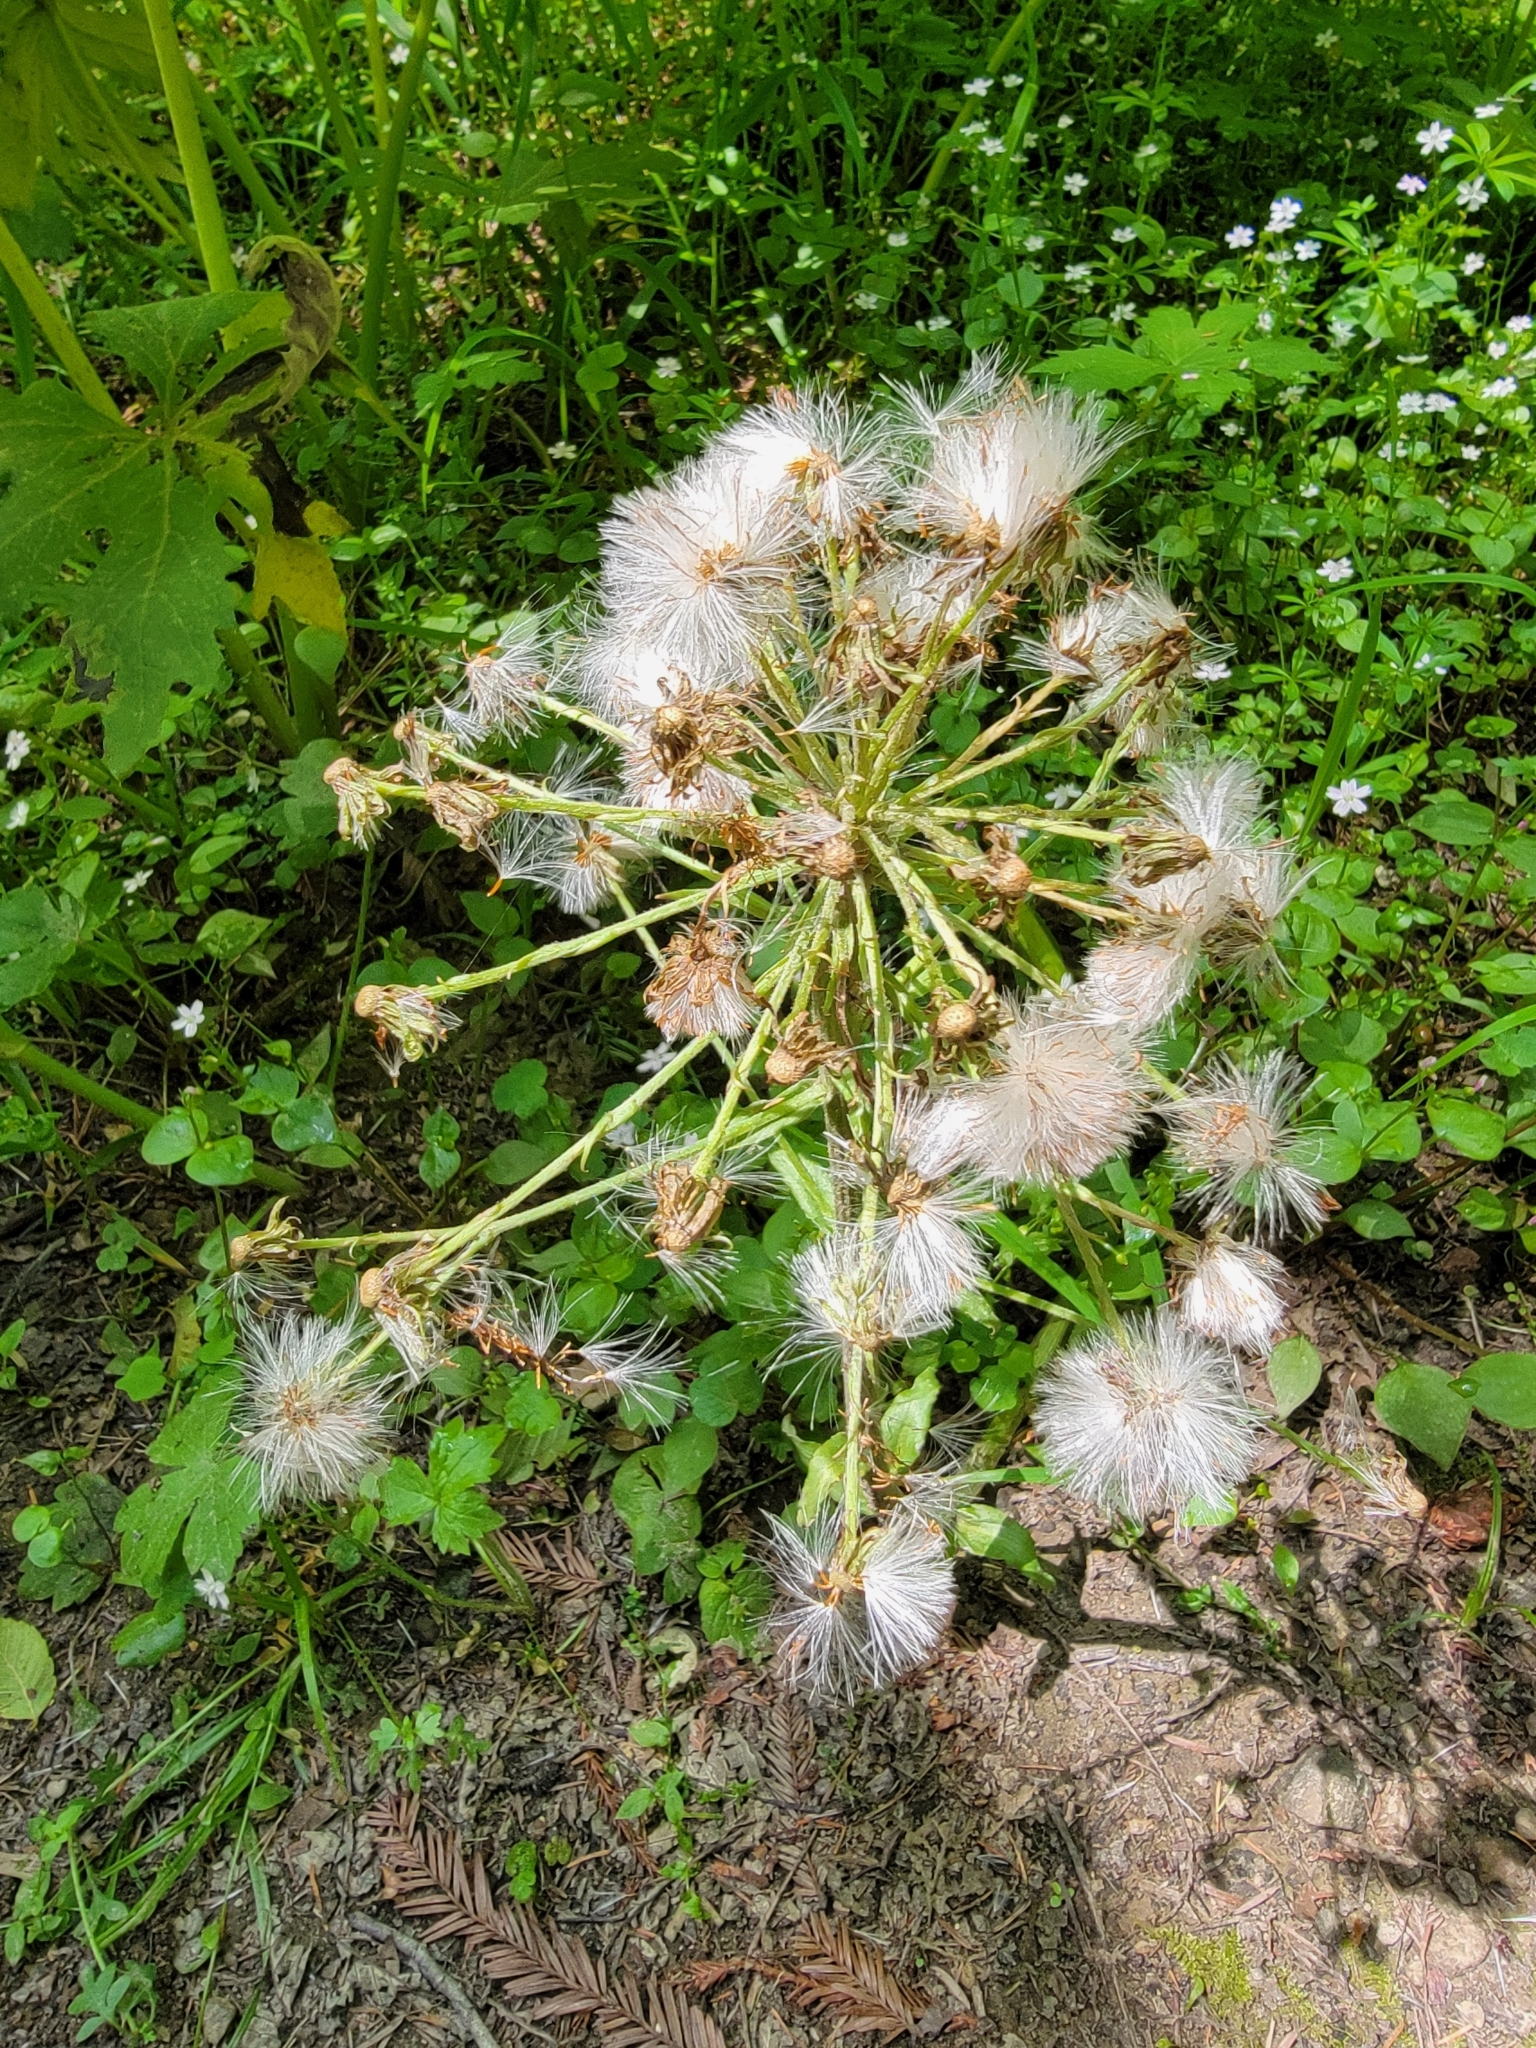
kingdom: Plantae
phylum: Tracheophyta
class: Magnoliopsida
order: Asterales
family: Asteraceae
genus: Petasites
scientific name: Petasites frigidus
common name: Arctic butterbur
